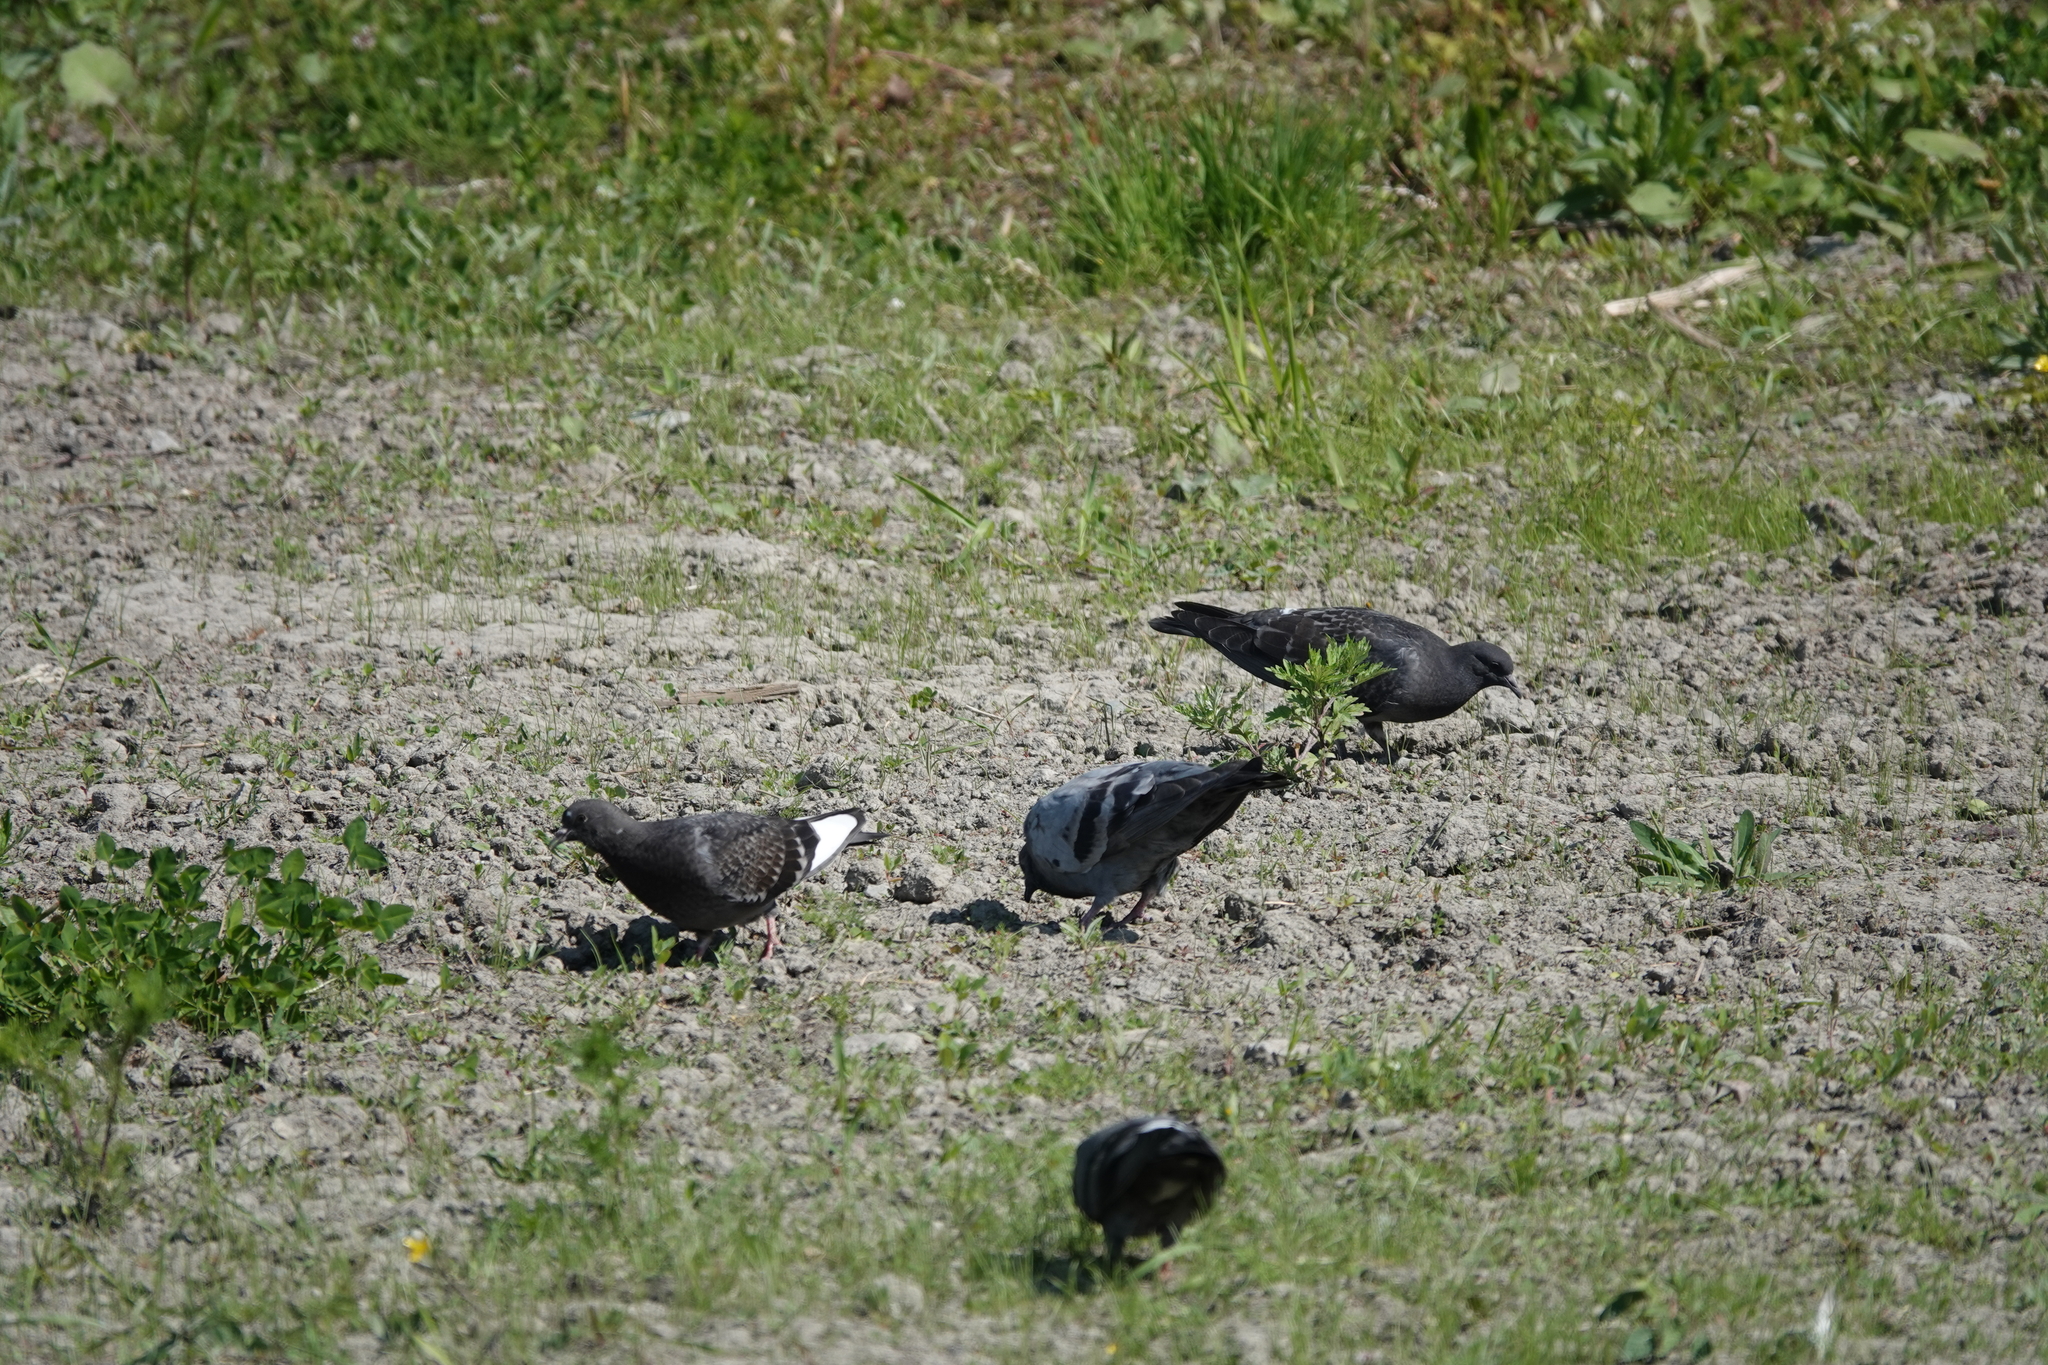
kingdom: Animalia
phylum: Chordata
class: Aves
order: Columbiformes
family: Columbidae
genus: Columba
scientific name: Columba livia
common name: Rock pigeon
